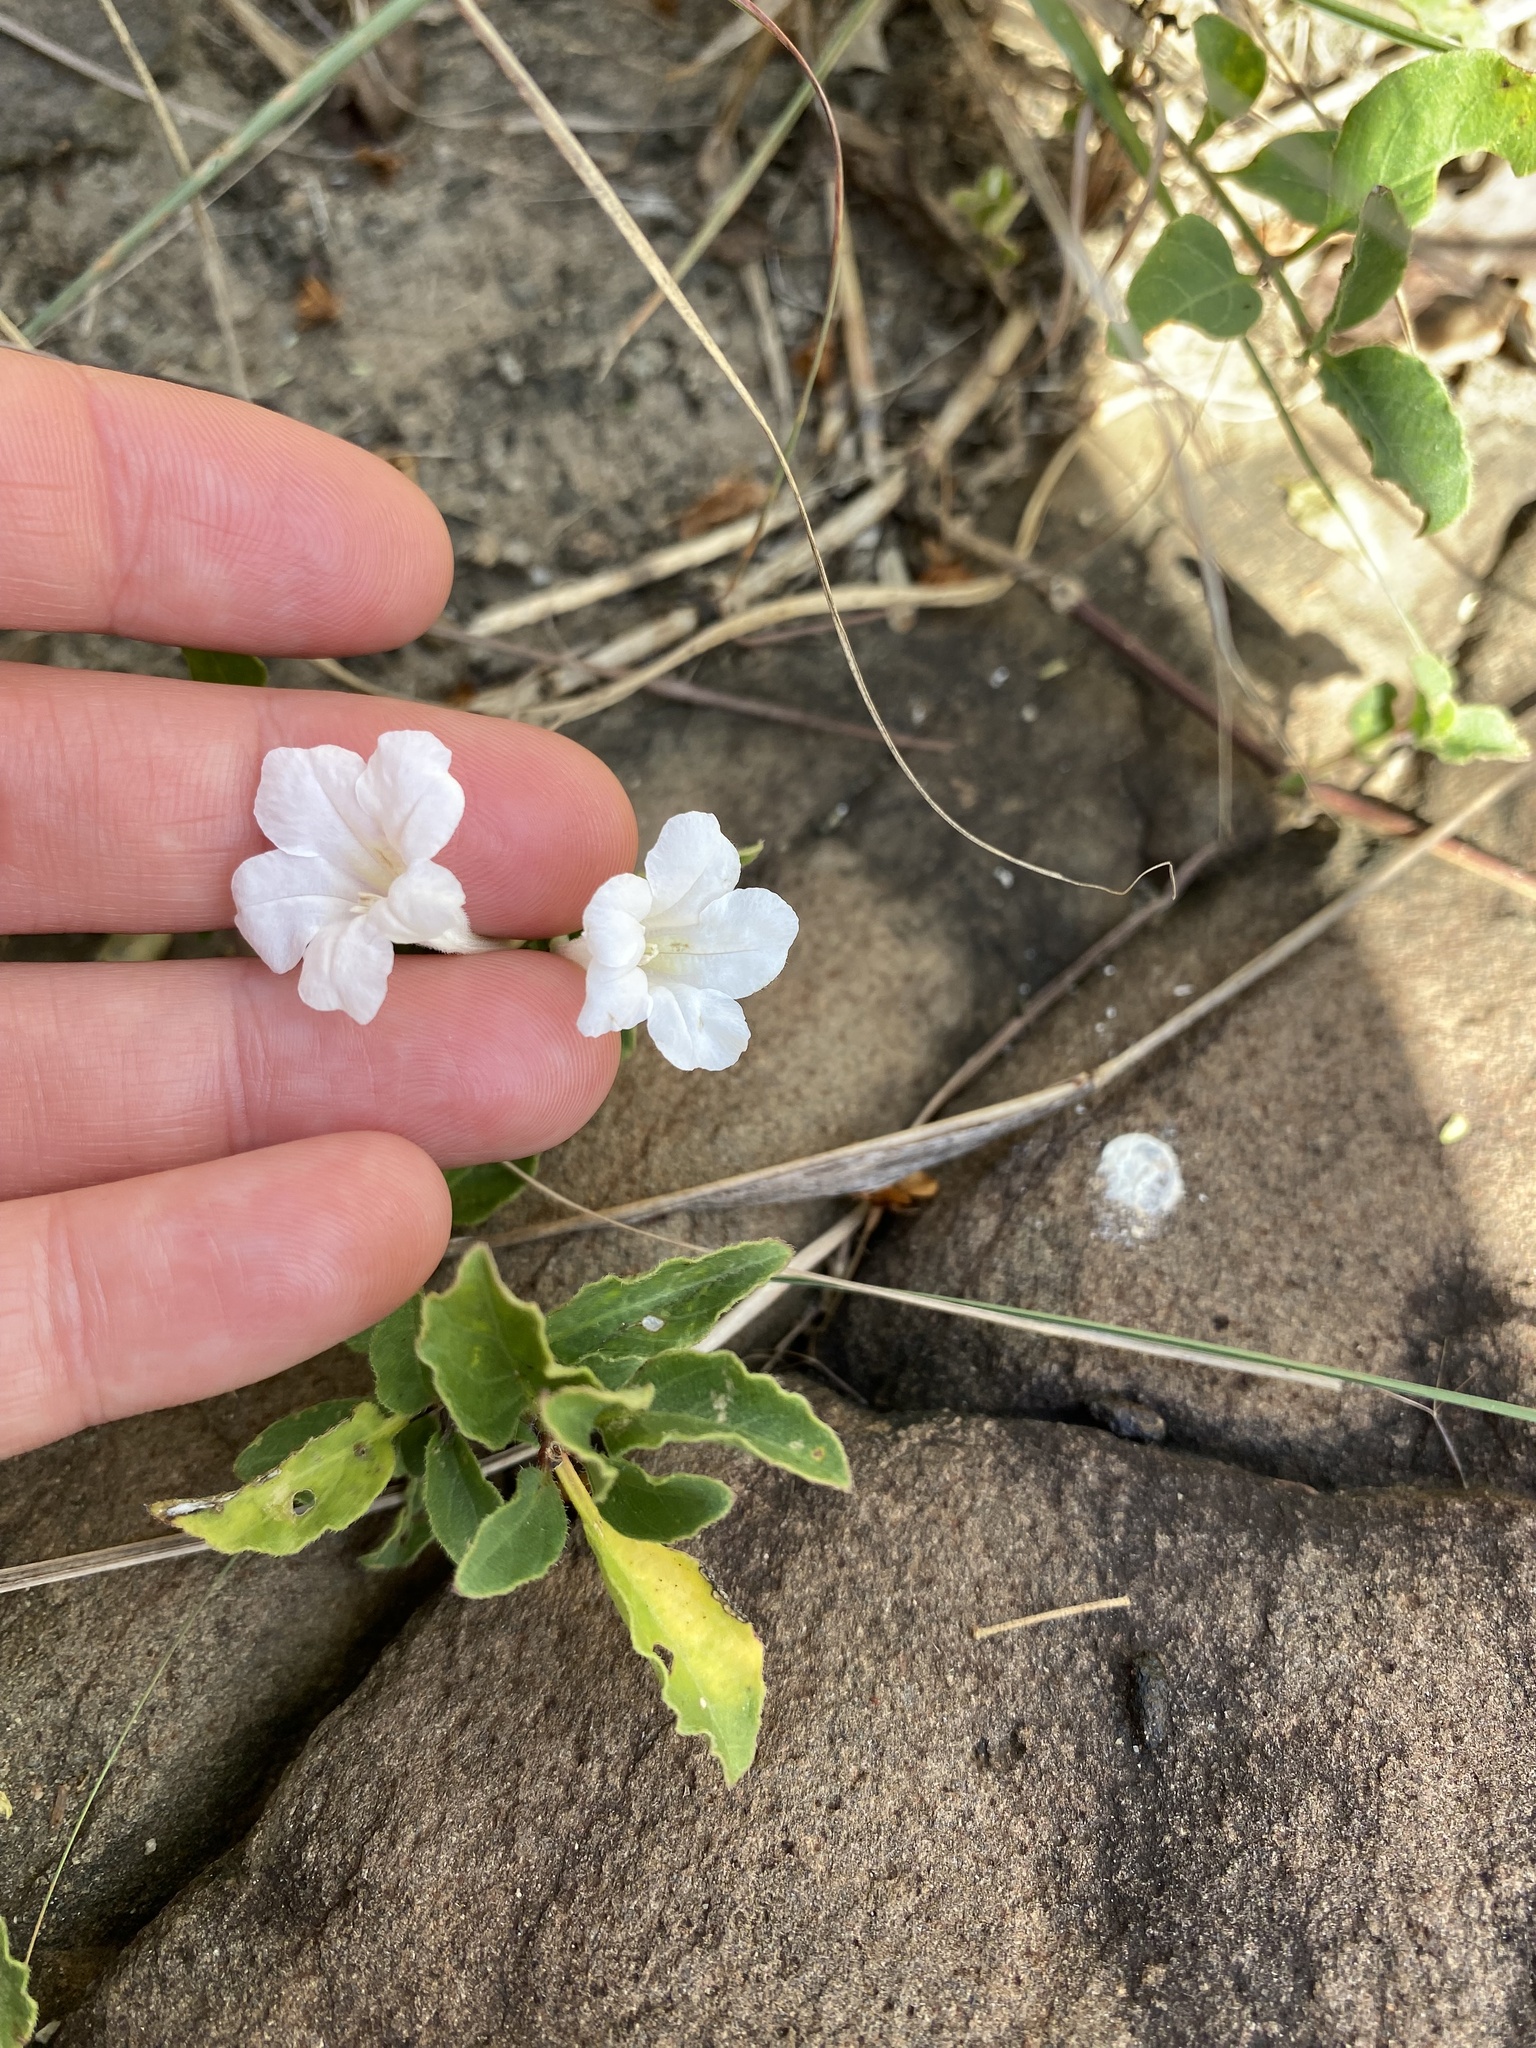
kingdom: Plantae
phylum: Tracheophyta
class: Magnoliopsida
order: Lamiales
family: Acanthaceae
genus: Ruellia
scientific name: Ruellia patula
